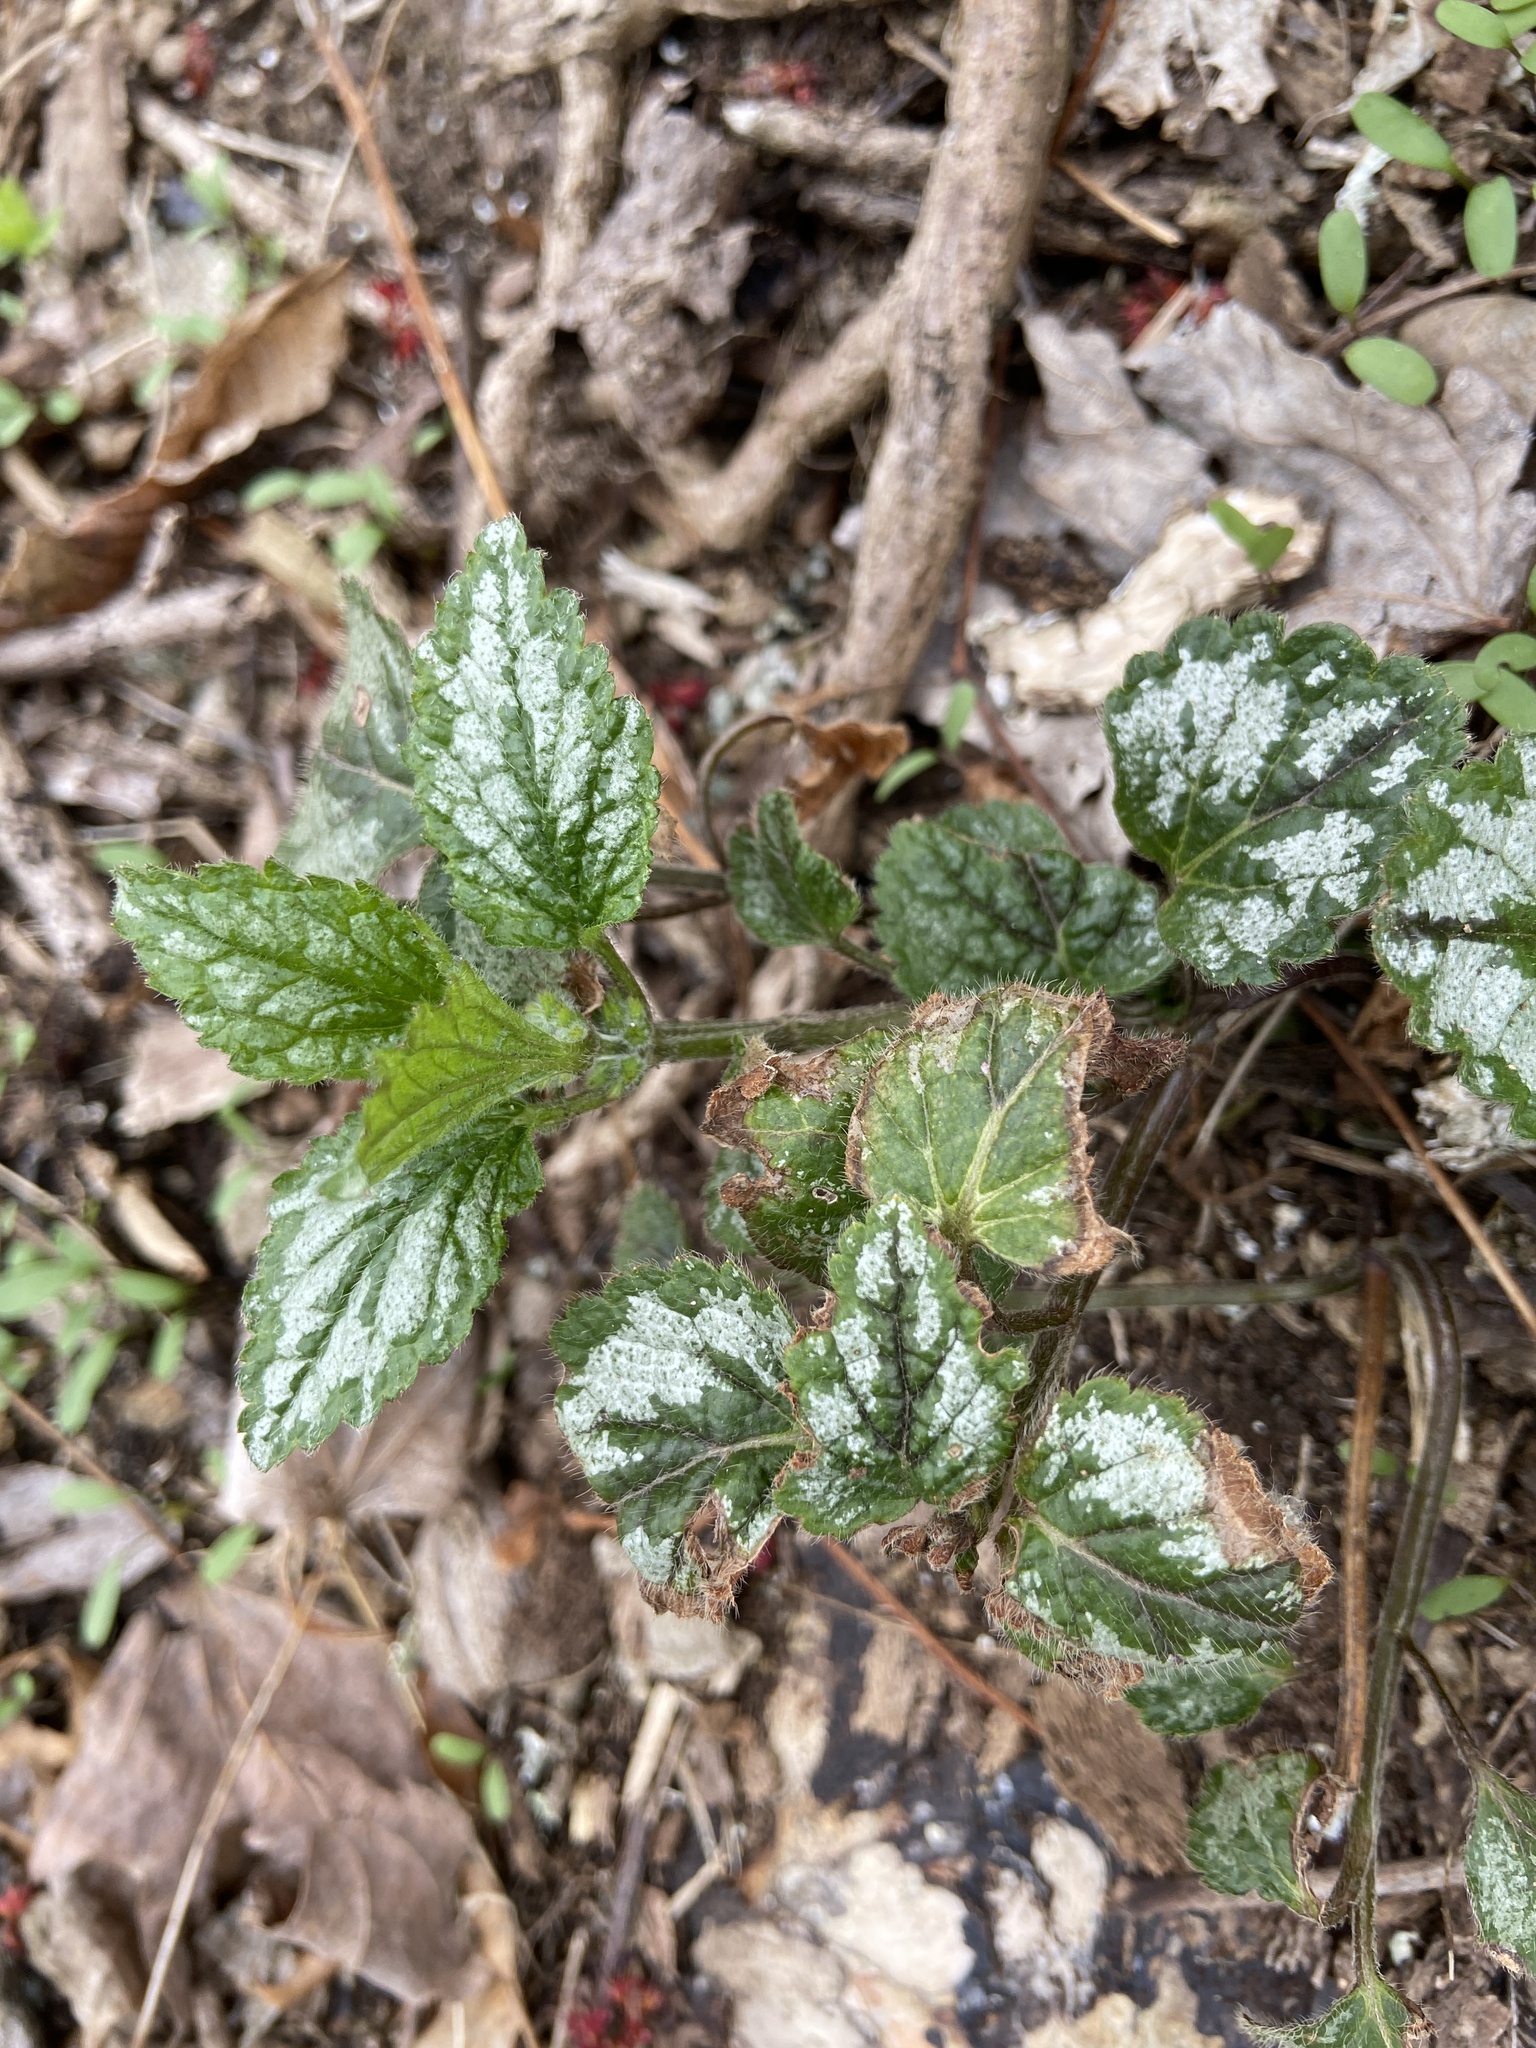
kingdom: Plantae
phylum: Tracheophyta
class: Magnoliopsida
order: Lamiales
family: Lamiaceae
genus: Lamium
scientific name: Lamium galeobdolon
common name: Yellow archangel
